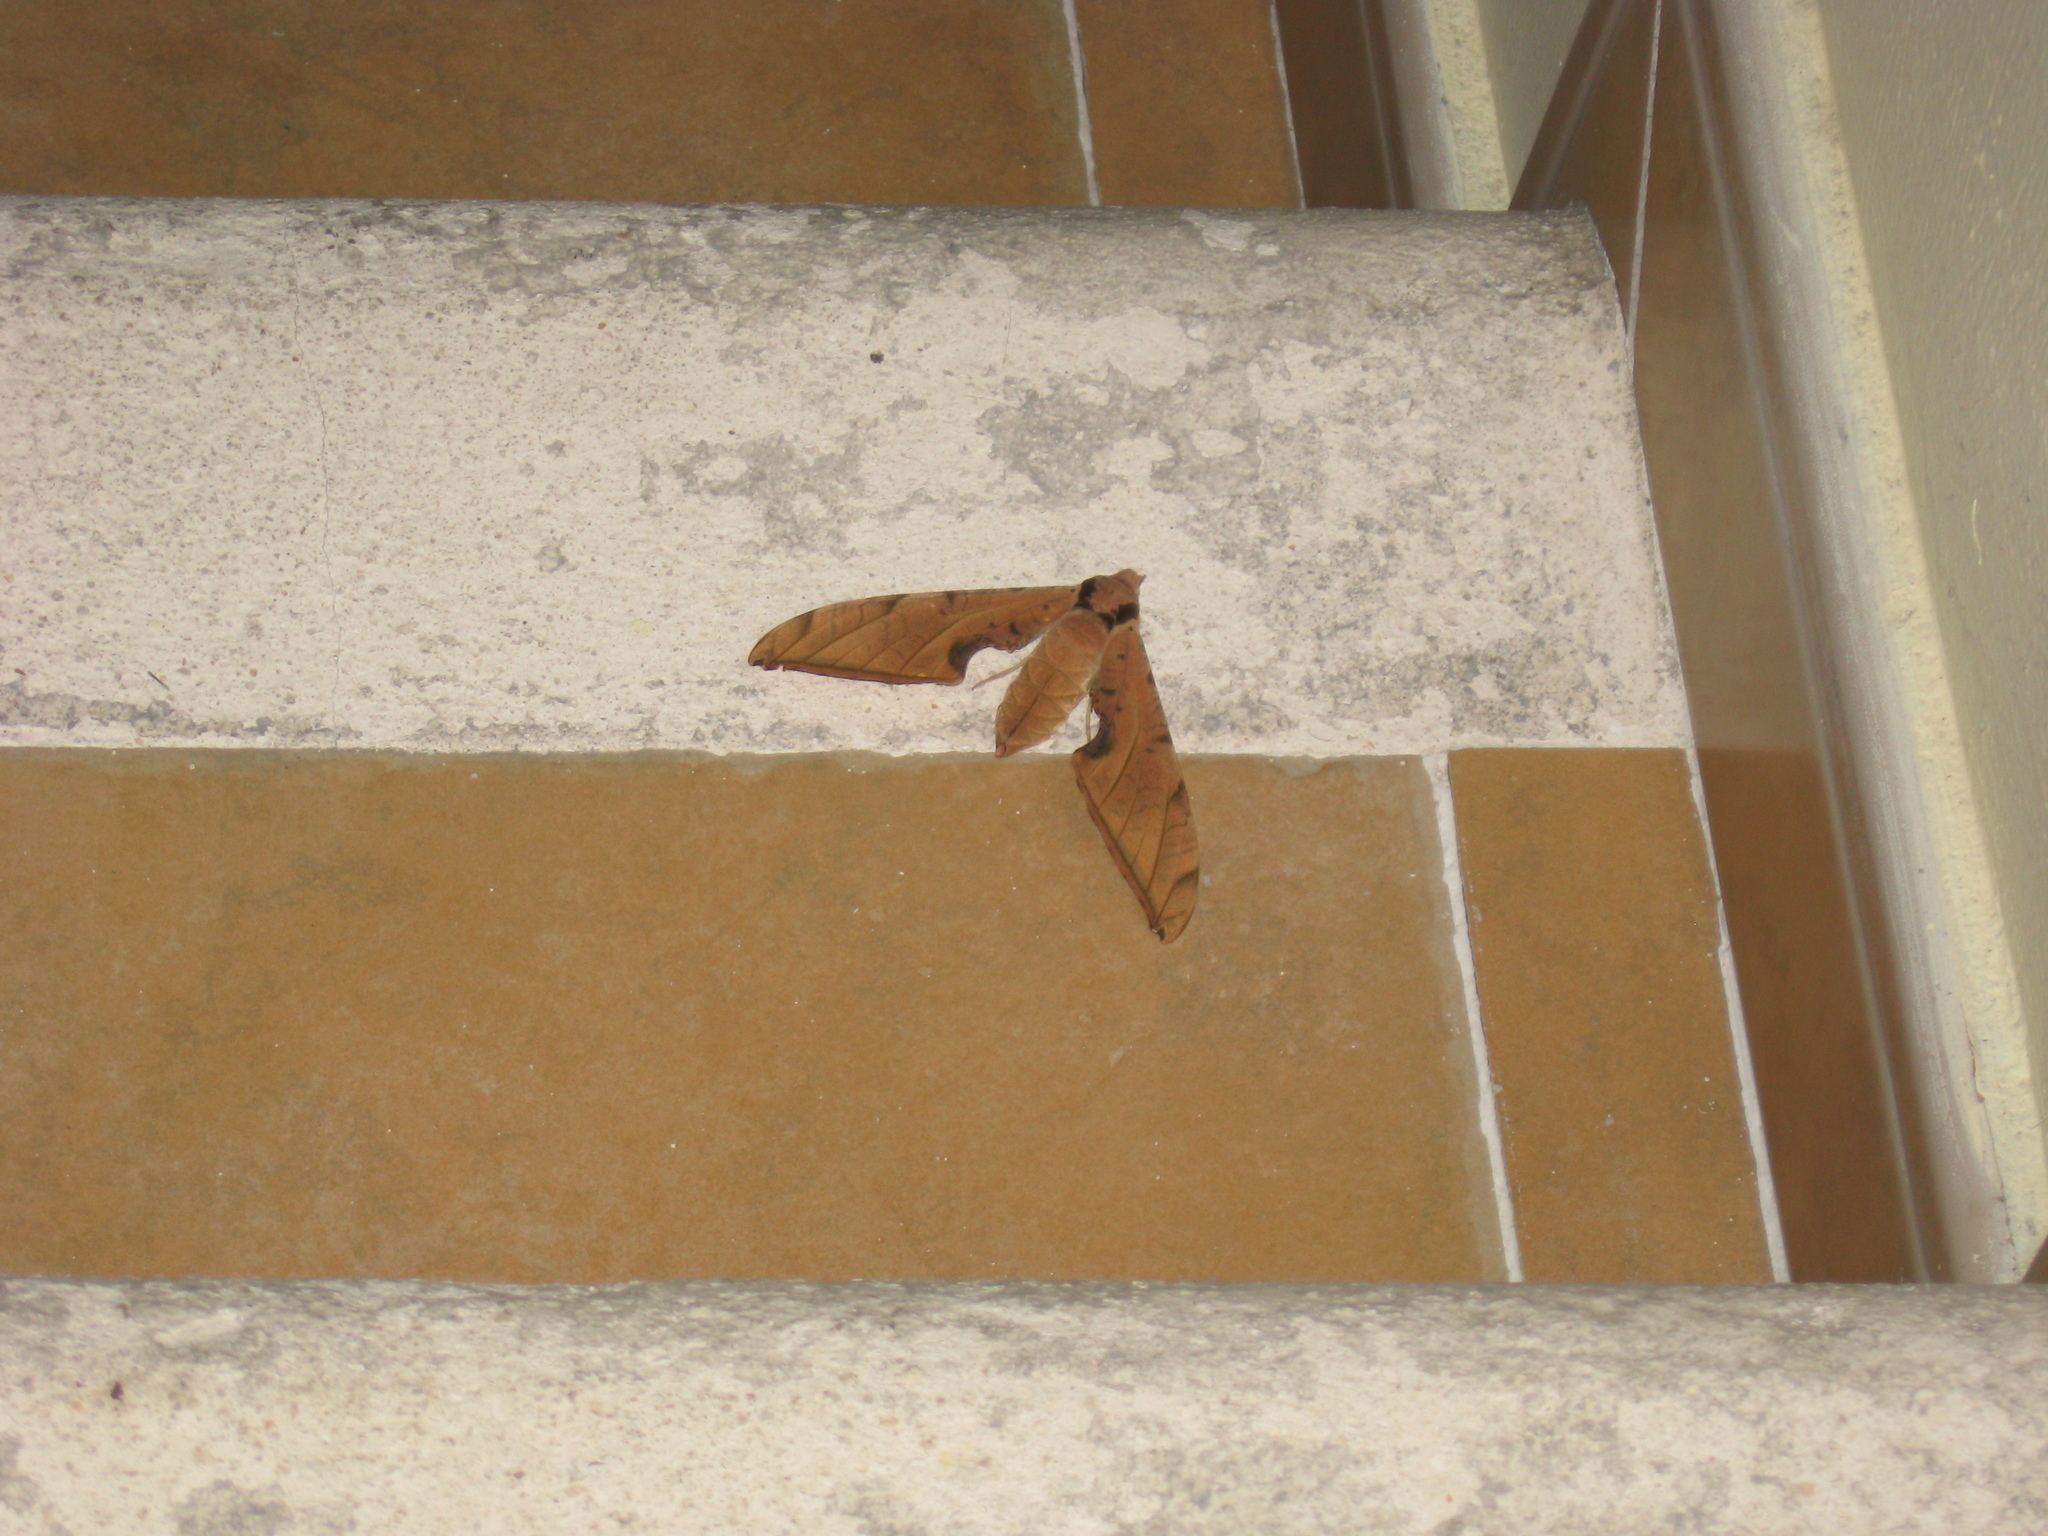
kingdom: Animalia
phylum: Arthropoda
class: Insecta
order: Lepidoptera
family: Sphingidae
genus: Protambulyx
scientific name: Protambulyx strigilis
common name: Streaked sphinx
